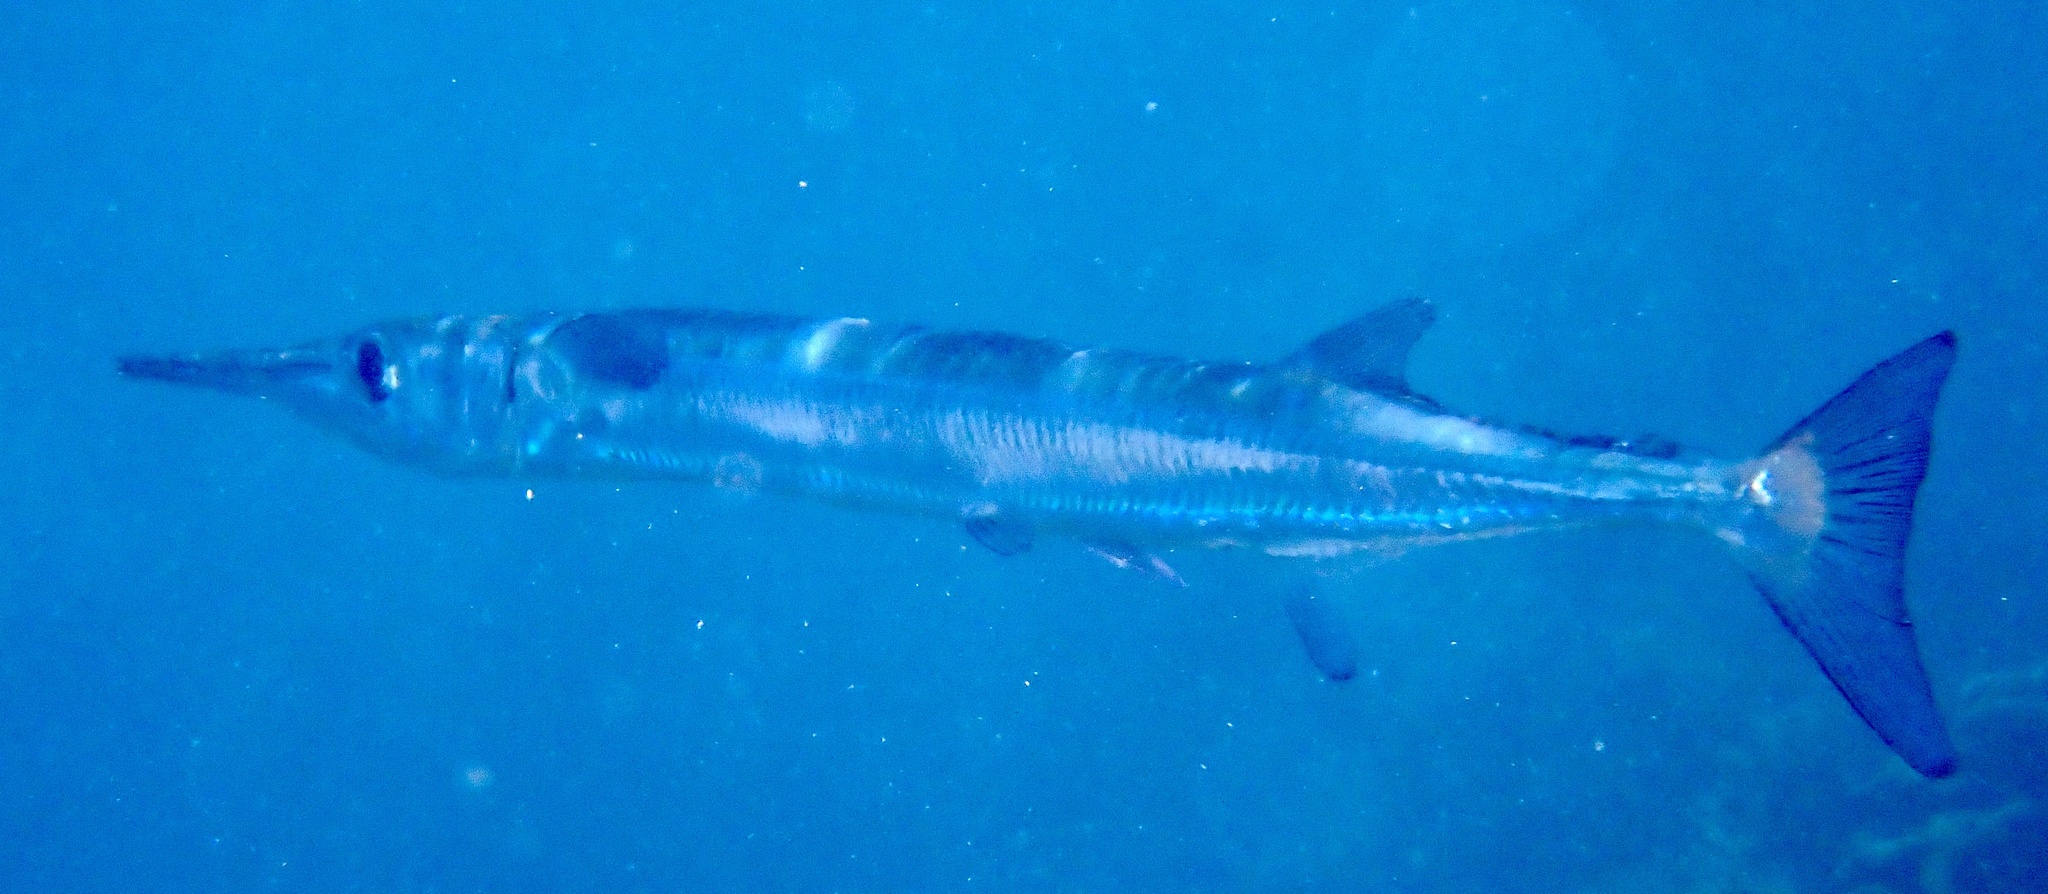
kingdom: Animalia
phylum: Chordata
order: Beloniformes
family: Belonidae
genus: Tylosurus
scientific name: Tylosurus crocodilus
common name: Houndfish
